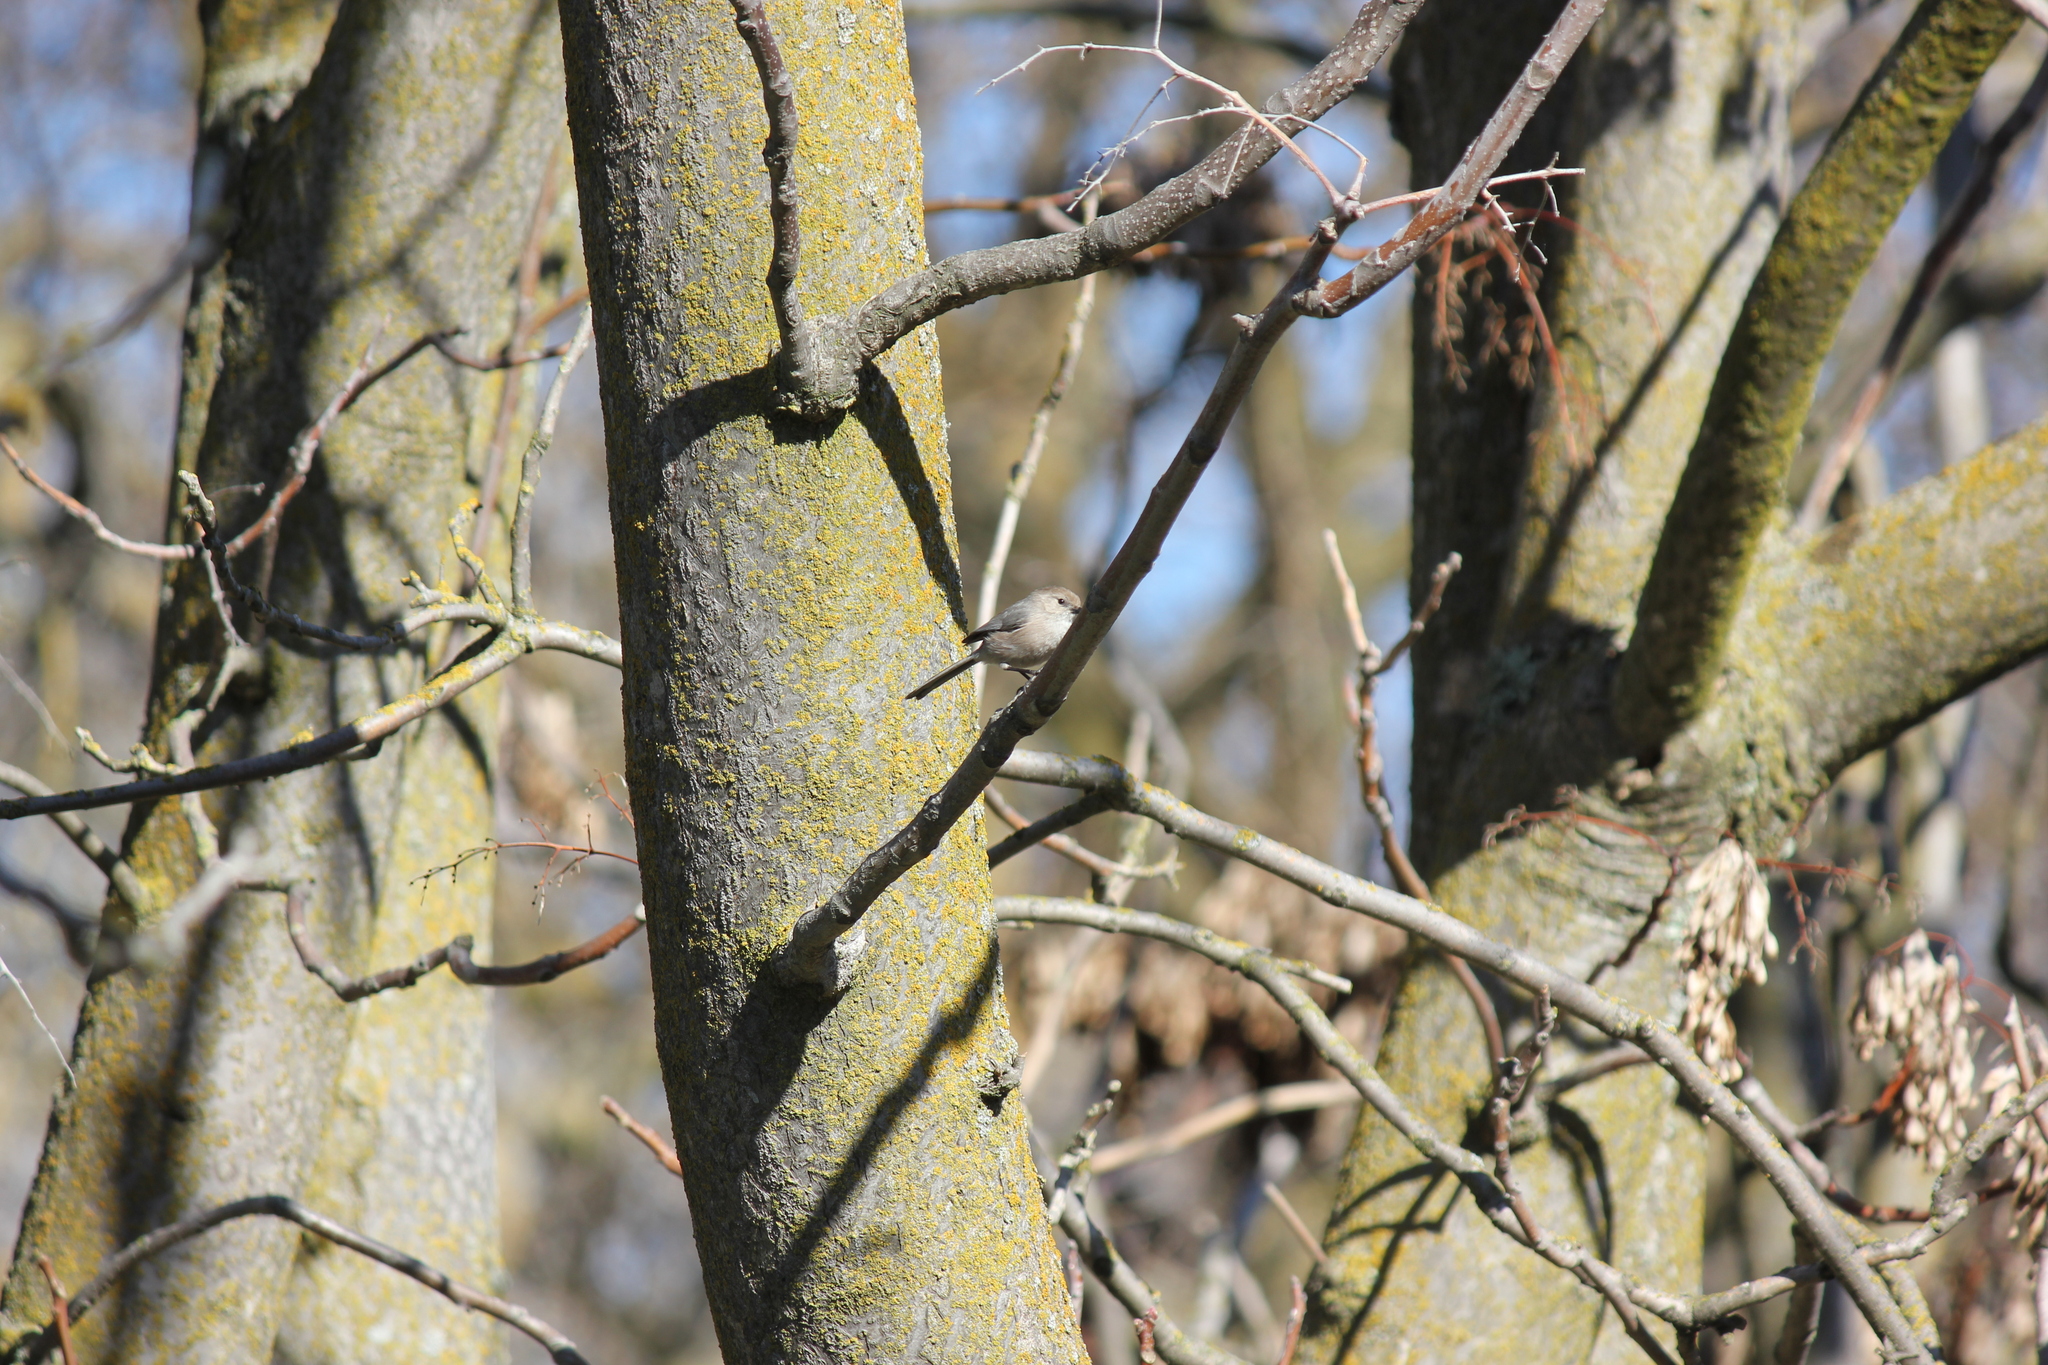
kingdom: Animalia
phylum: Chordata
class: Aves
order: Passeriformes
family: Aegithalidae
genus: Psaltriparus
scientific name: Psaltriparus minimus
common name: American bushtit
